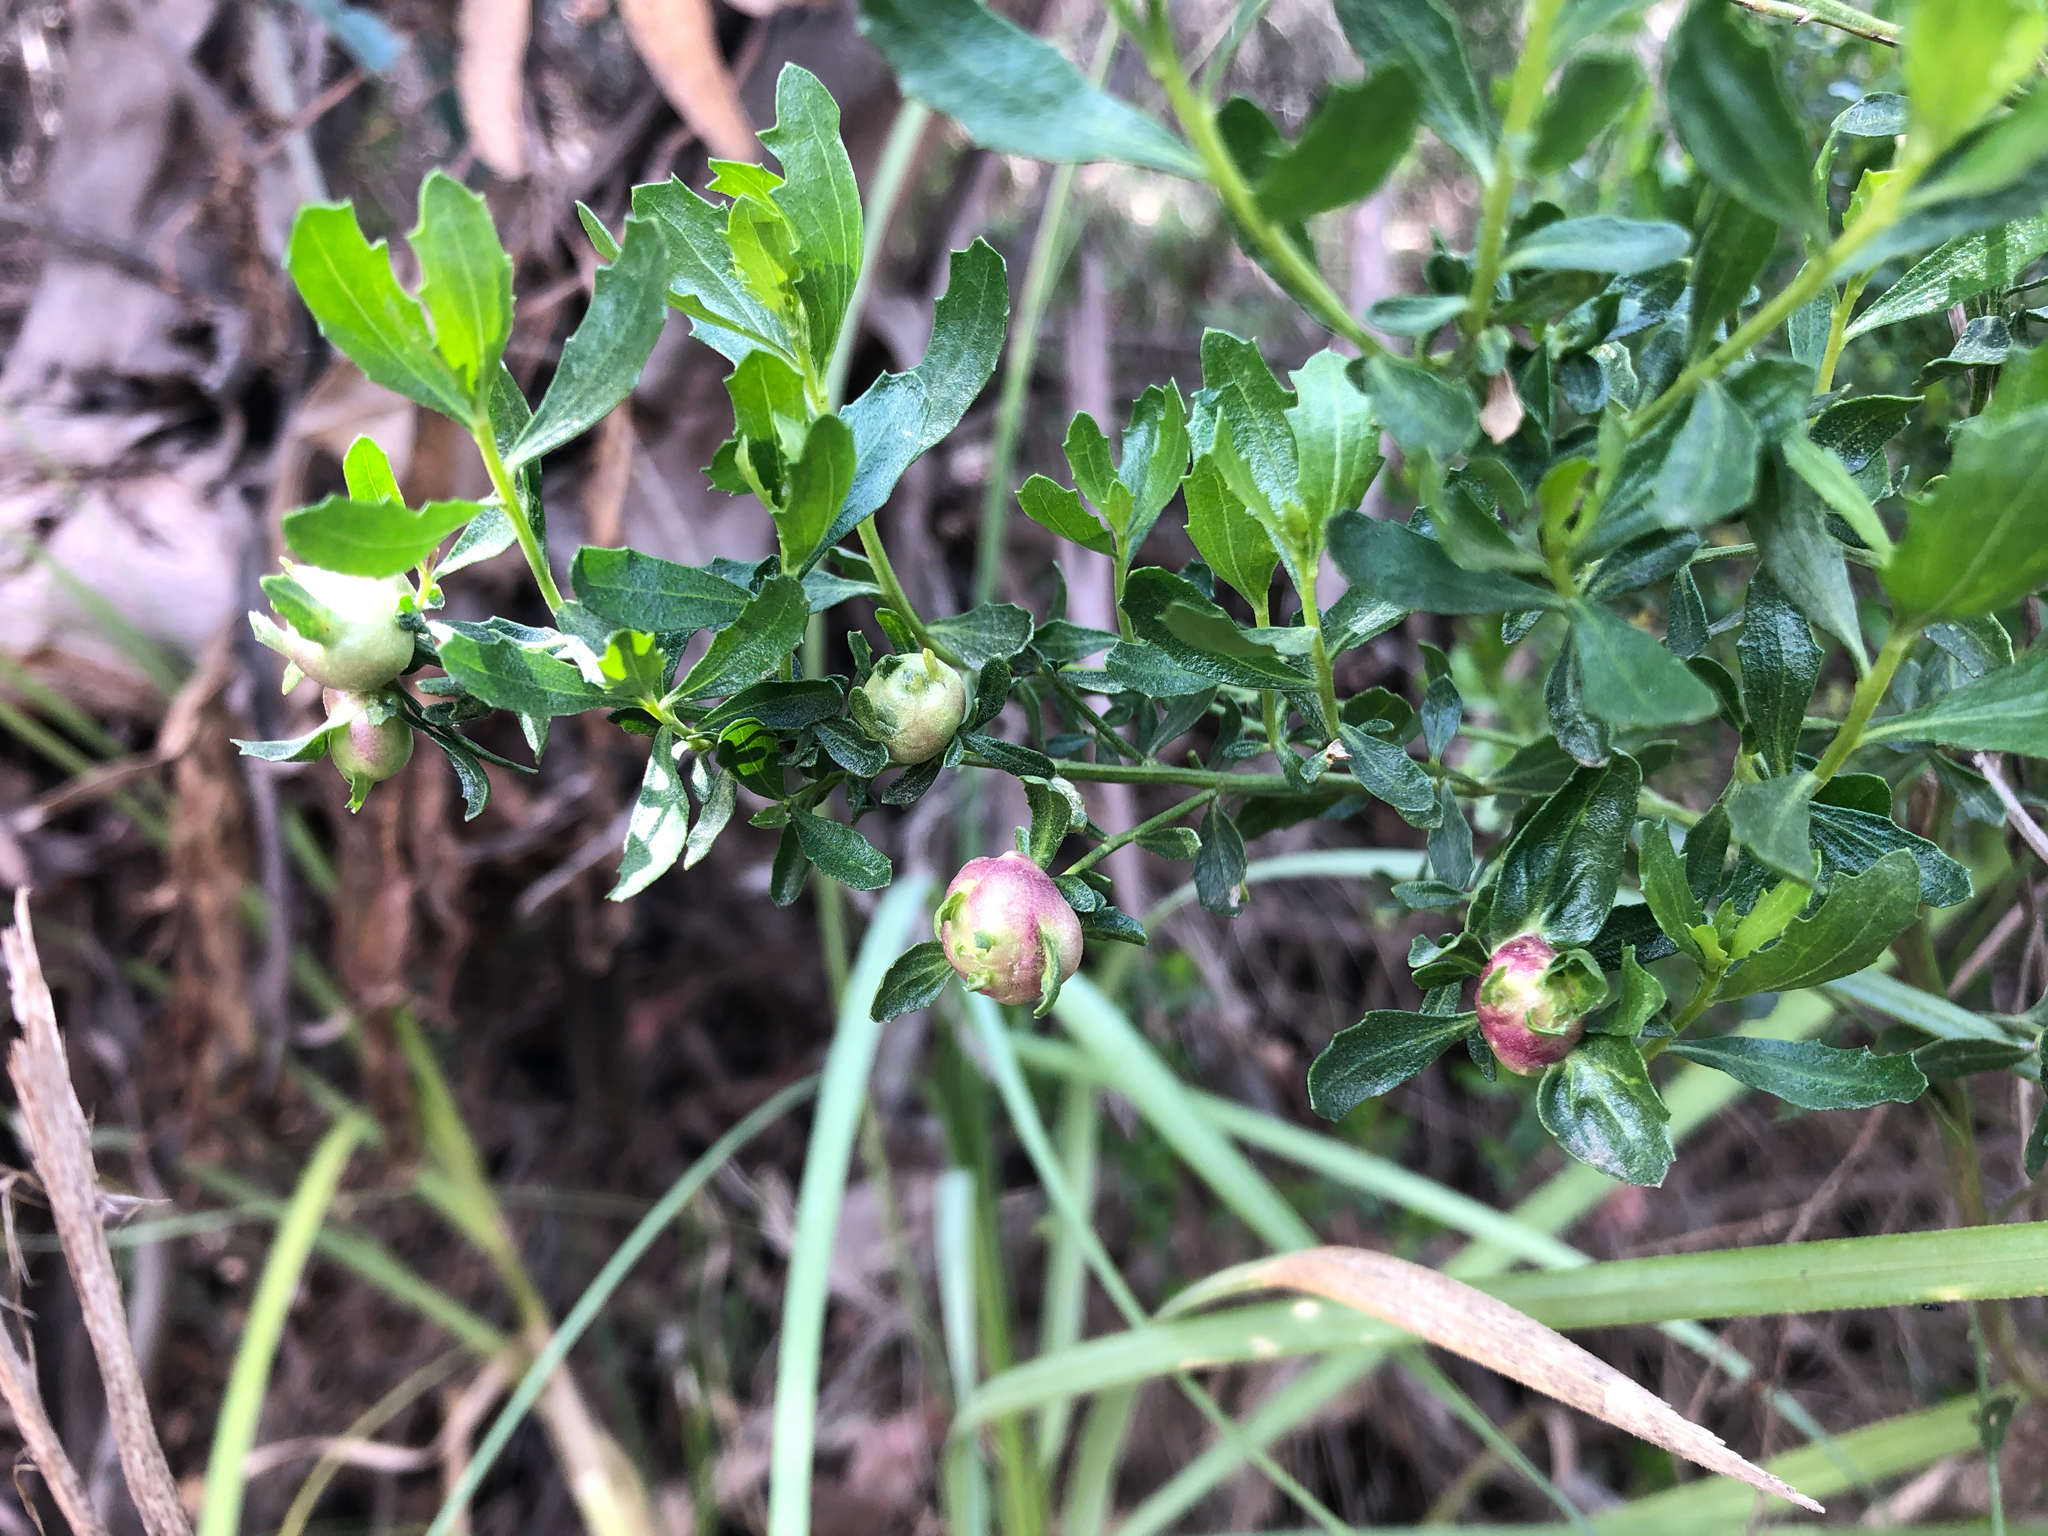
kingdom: Animalia
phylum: Arthropoda
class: Insecta
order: Diptera
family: Cecidomyiidae
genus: Rhopalomyia
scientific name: Rhopalomyia californica
